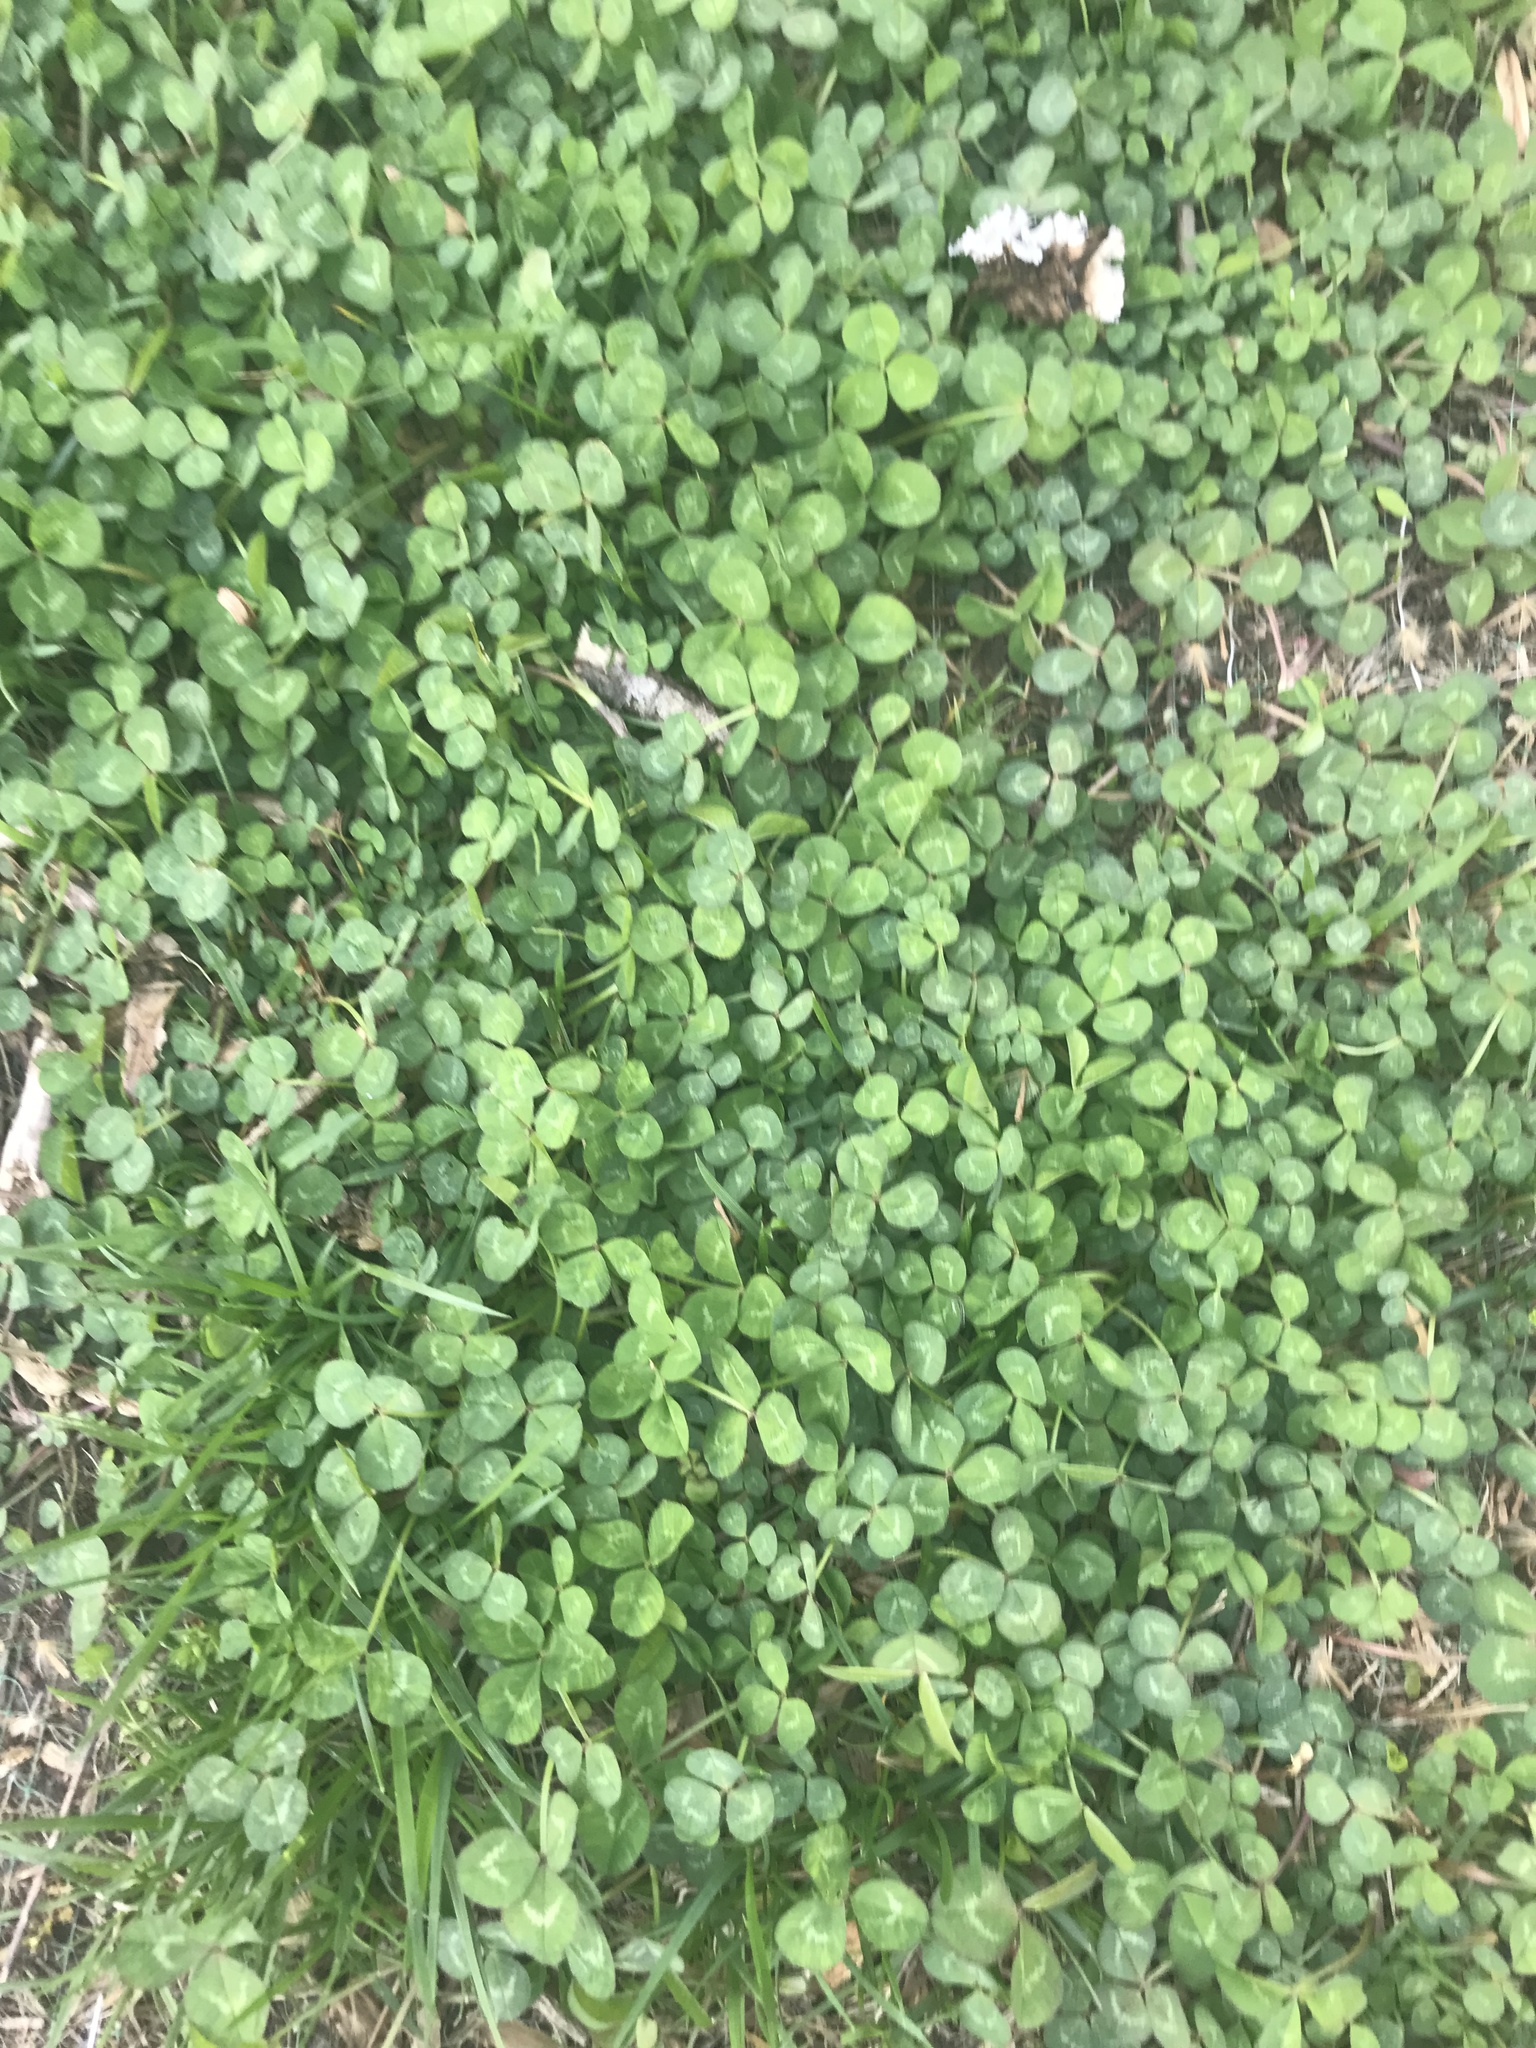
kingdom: Plantae
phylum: Tracheophyta
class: Magnoliopsida
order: Fabales
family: Fabaceae
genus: Trifolium
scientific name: Trifolium repens
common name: White clover
